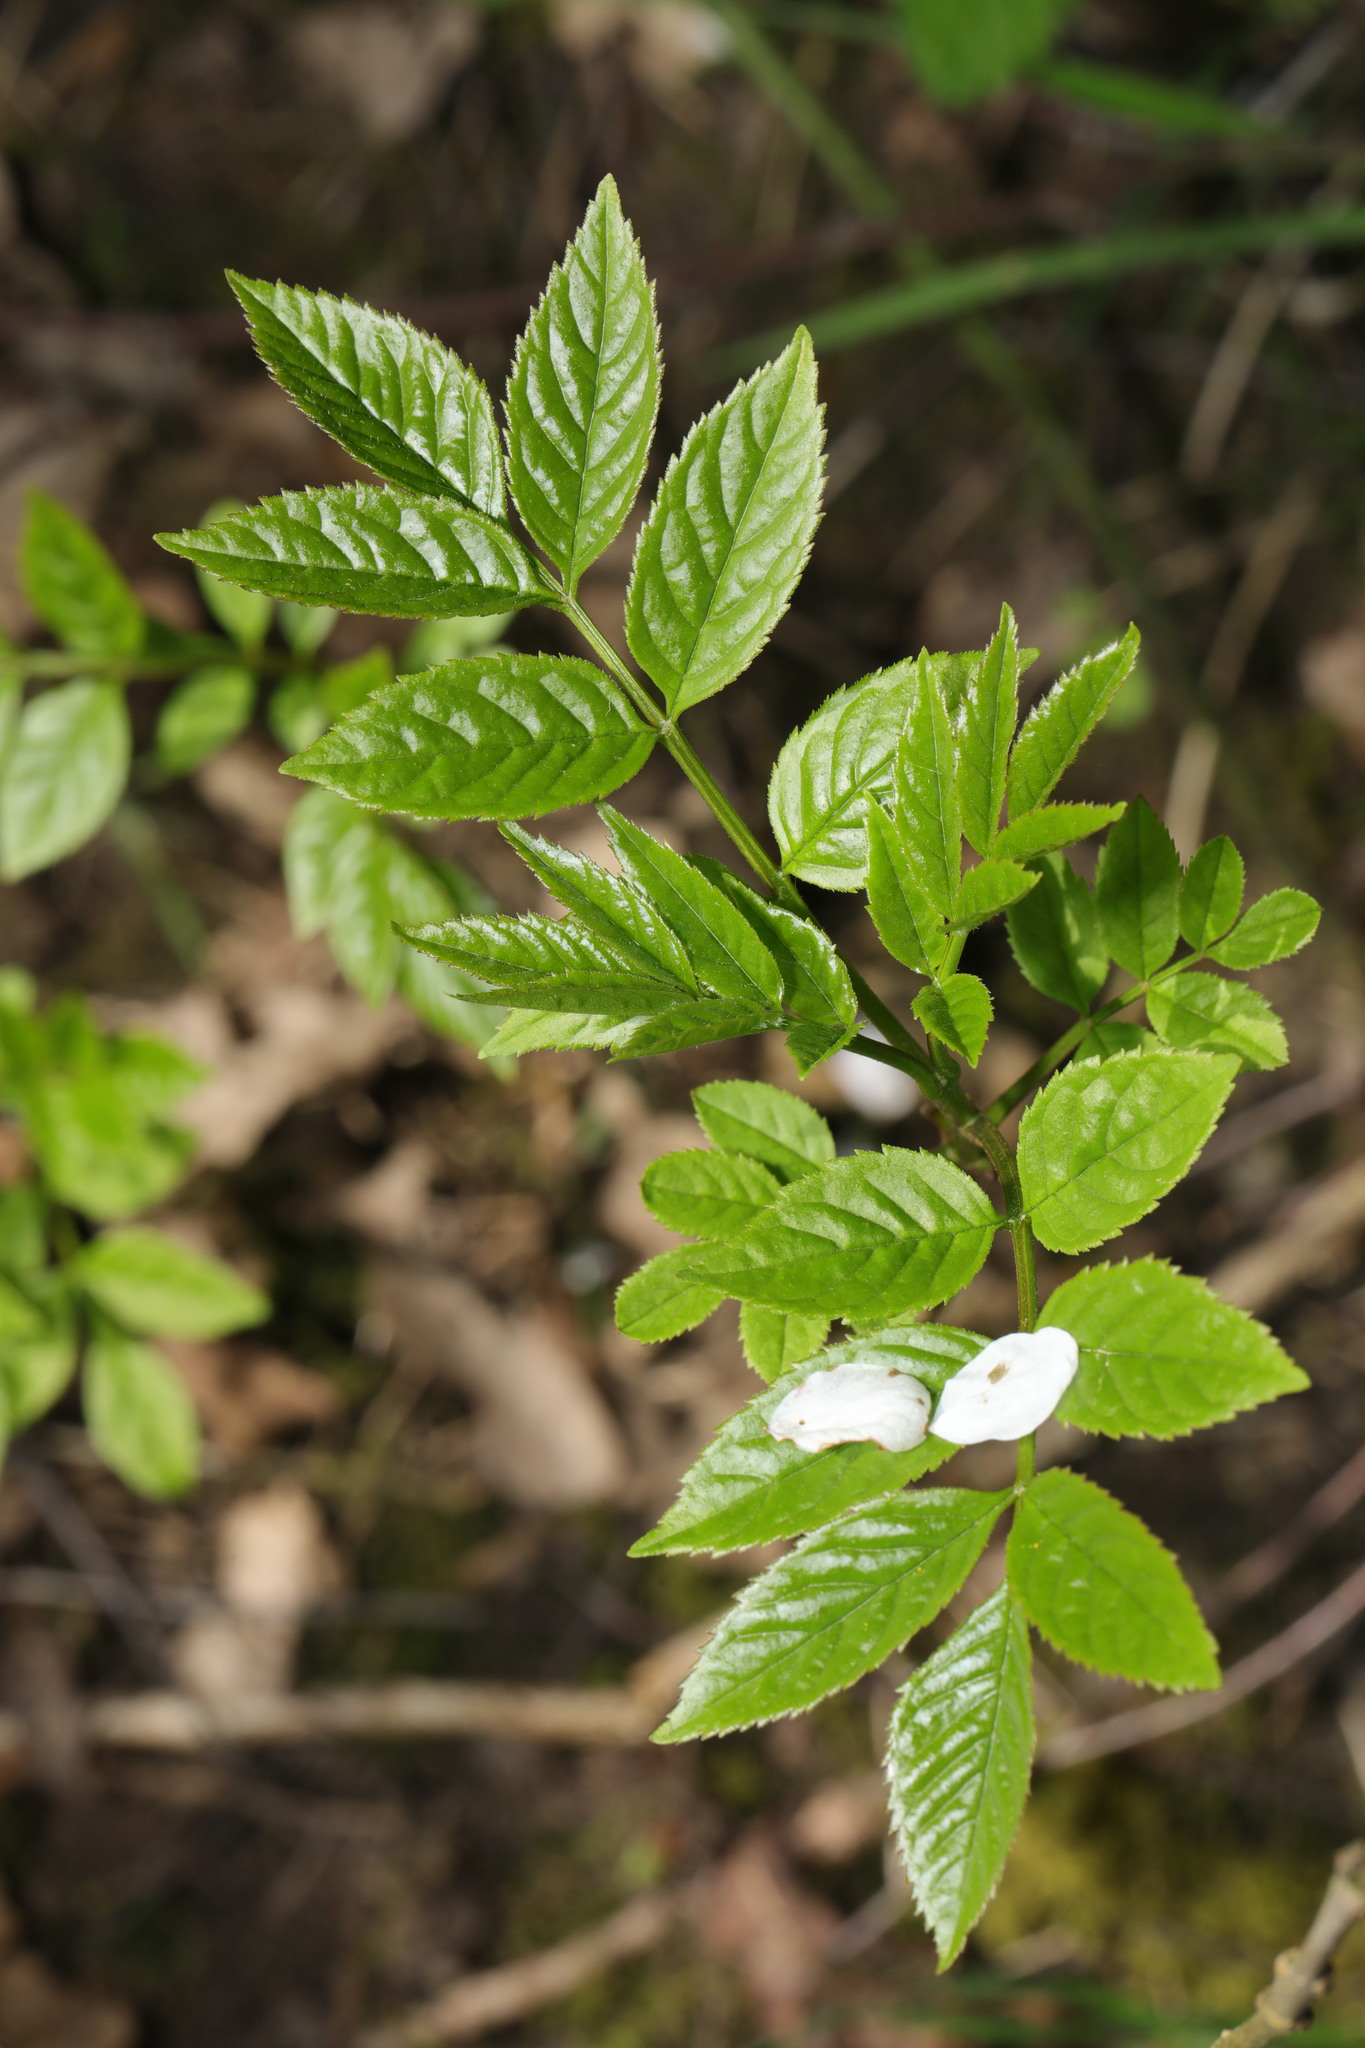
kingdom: Plantae
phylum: Tracheophyta
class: Magnoliopsida
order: Lamiales
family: Oleaceae
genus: Fraxinus
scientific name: Fraxinus excelsior
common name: European ash
